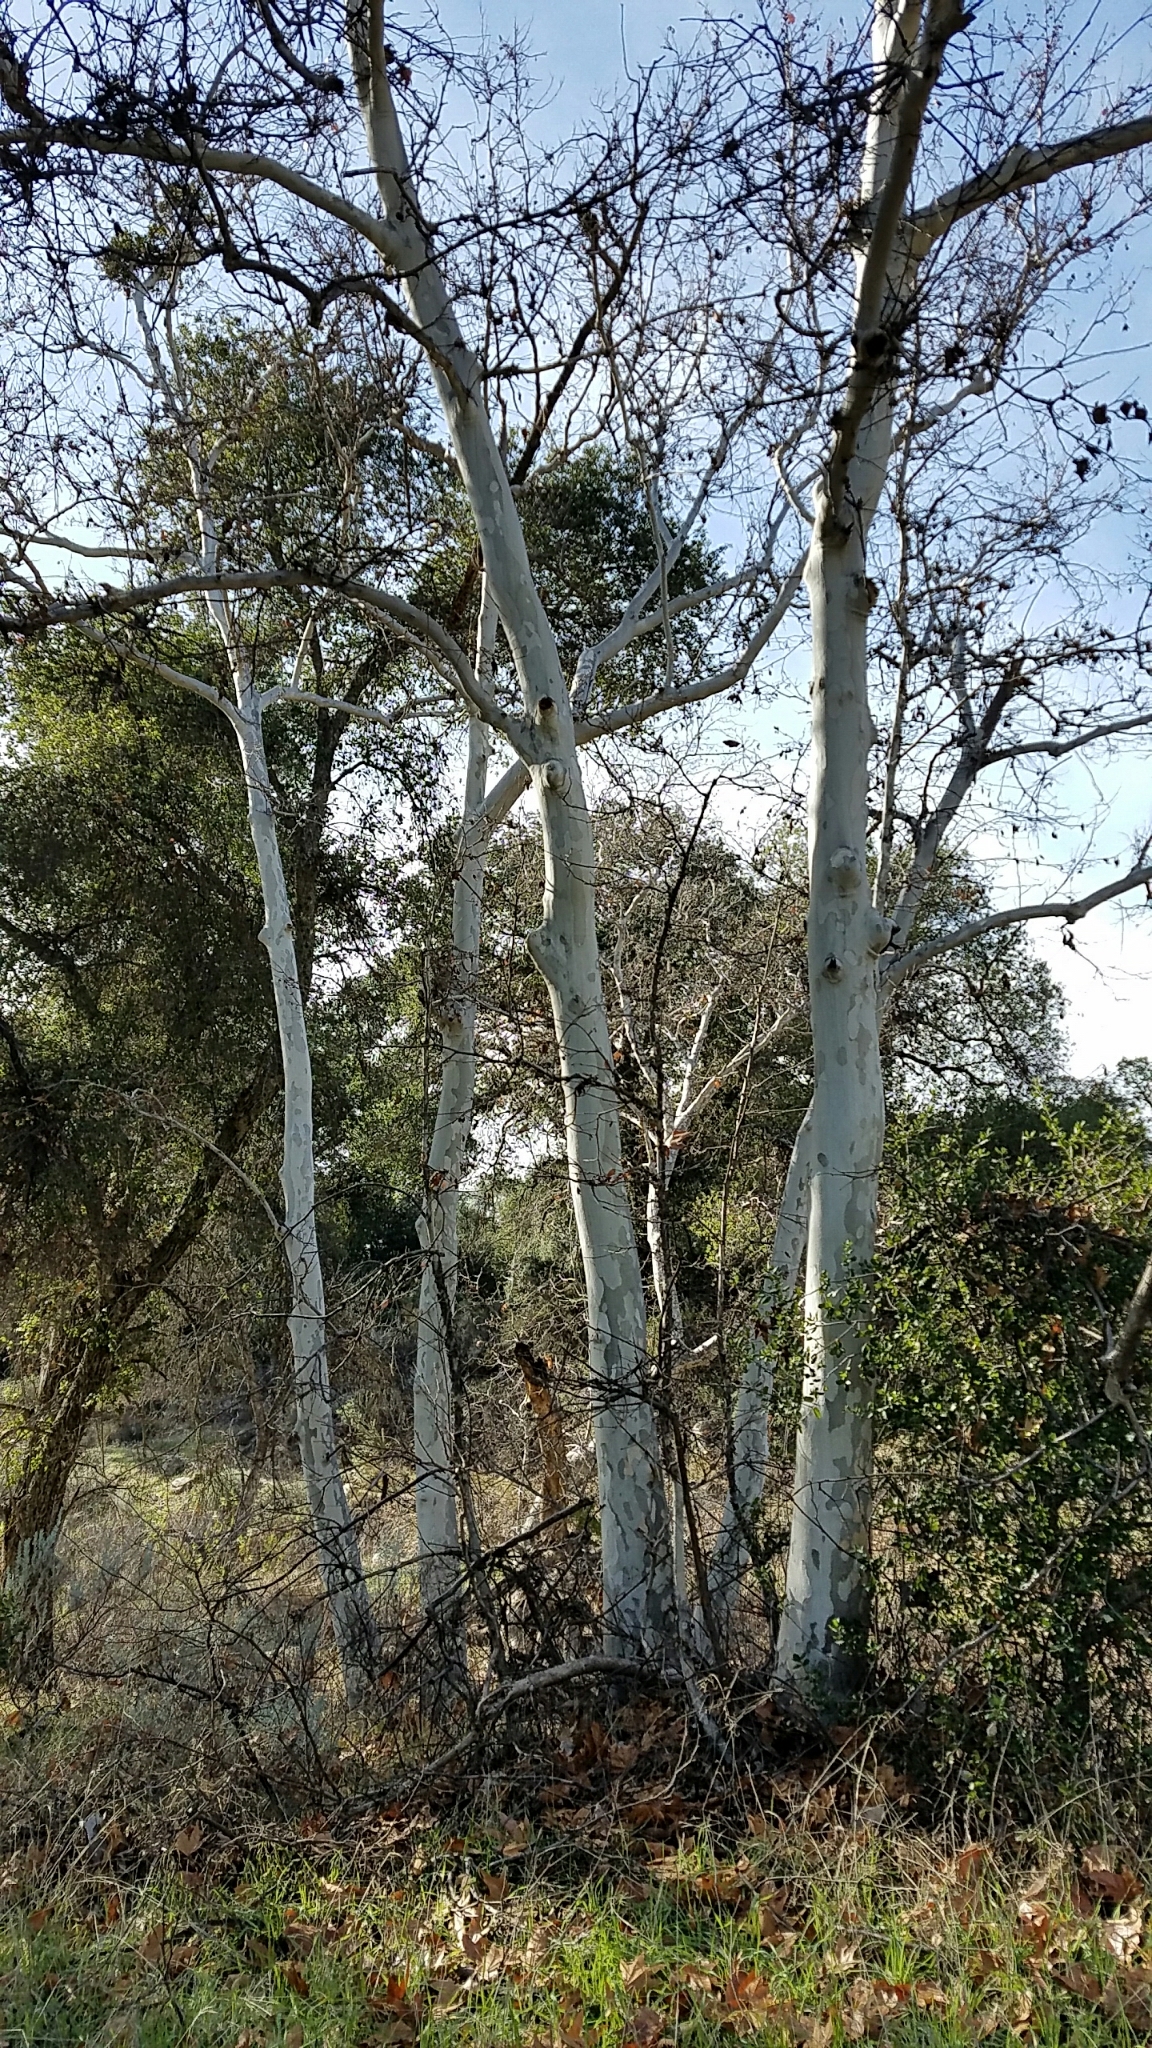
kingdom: Plantae
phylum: Tracheophyta
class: Magnoliopsida
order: Proteales
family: Platanaceae
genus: Platanus
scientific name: Platanus racemosa
